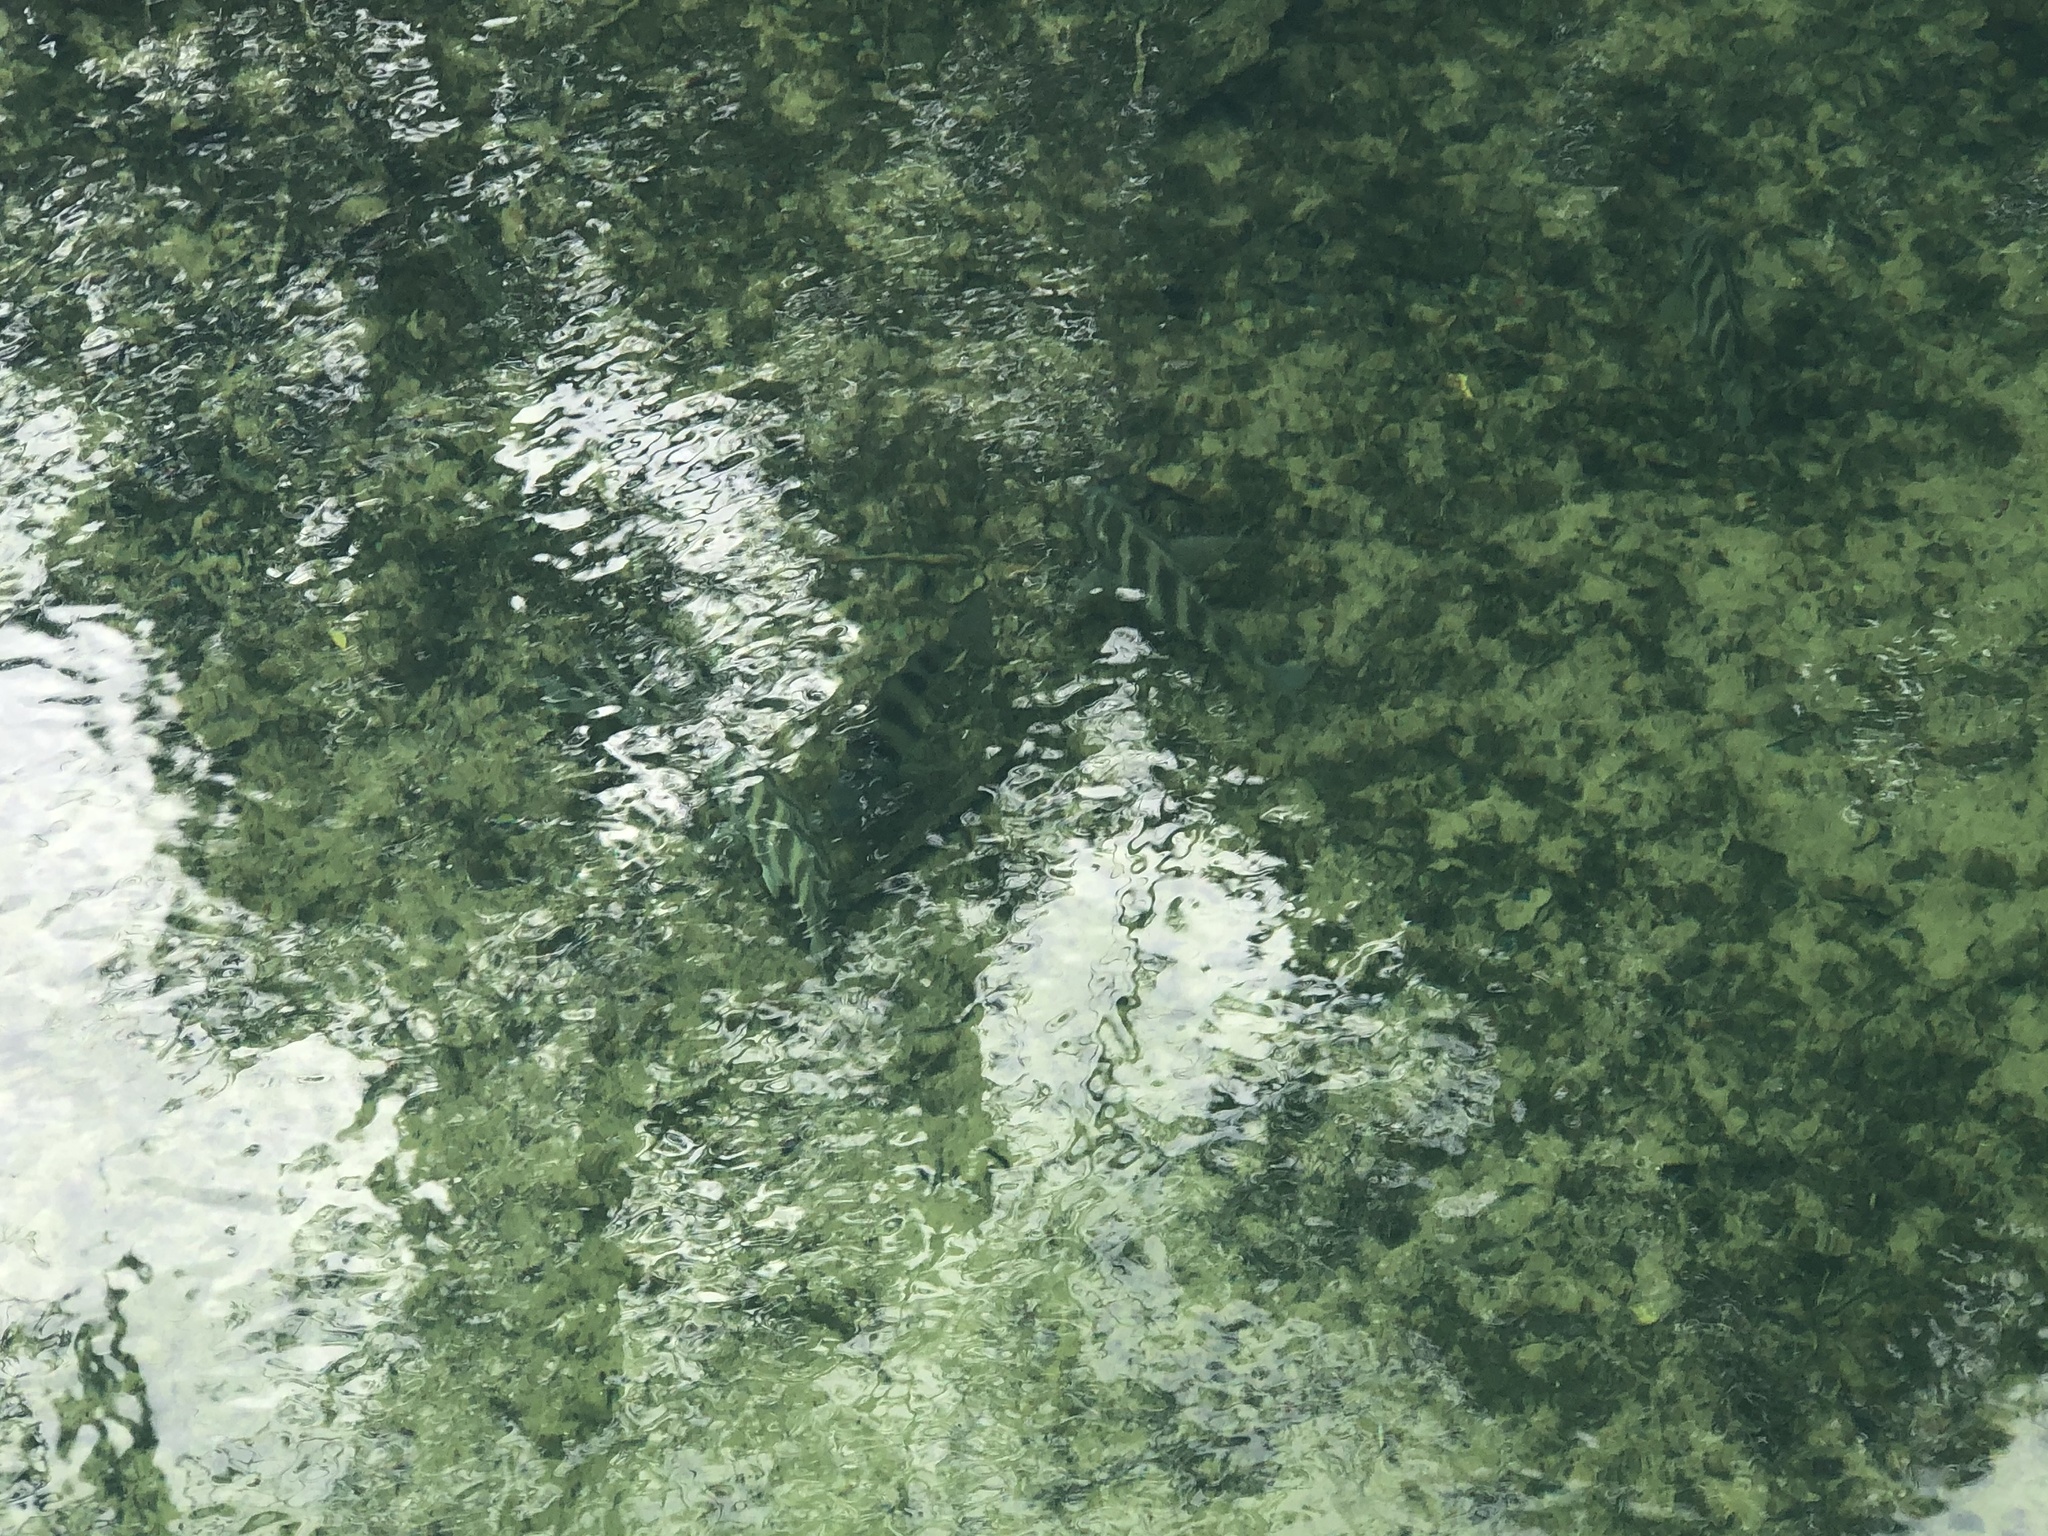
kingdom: Animalia
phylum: Chordata
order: Perciformes
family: Sparidae
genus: Archosargus
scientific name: Archosargus probatocephalus
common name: Sheepshead
